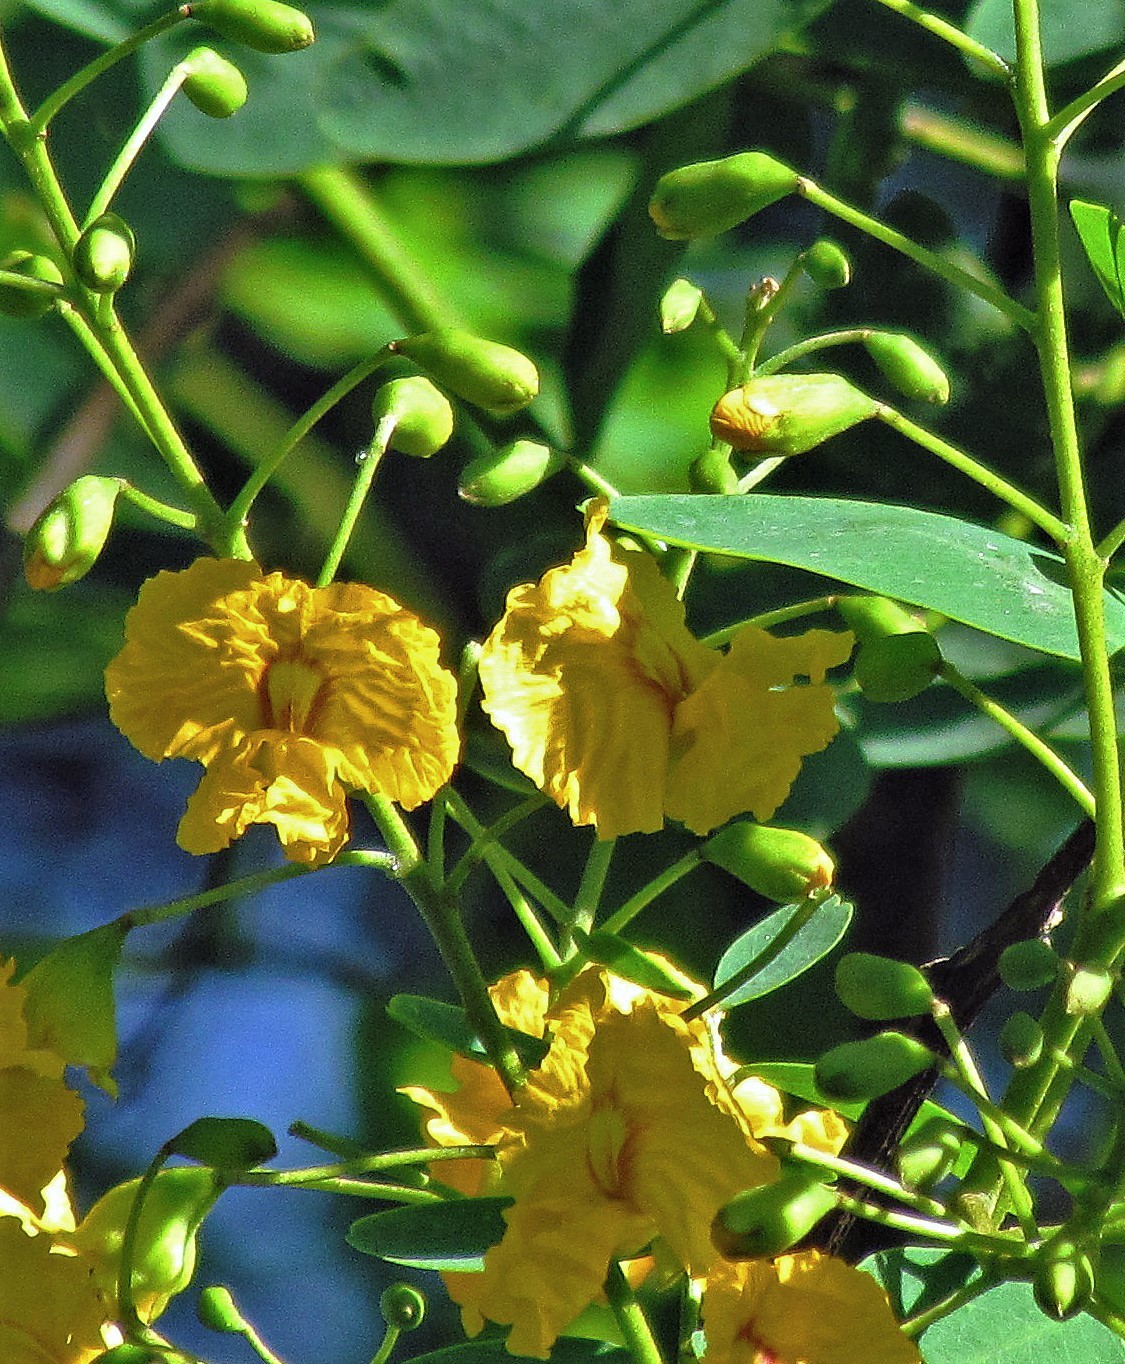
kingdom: Plantae
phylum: Tracheophyta
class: Magnoliopsida
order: Fabales
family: Fabaceae
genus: Tipuana
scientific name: Tipuana tipu
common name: Tiputree
